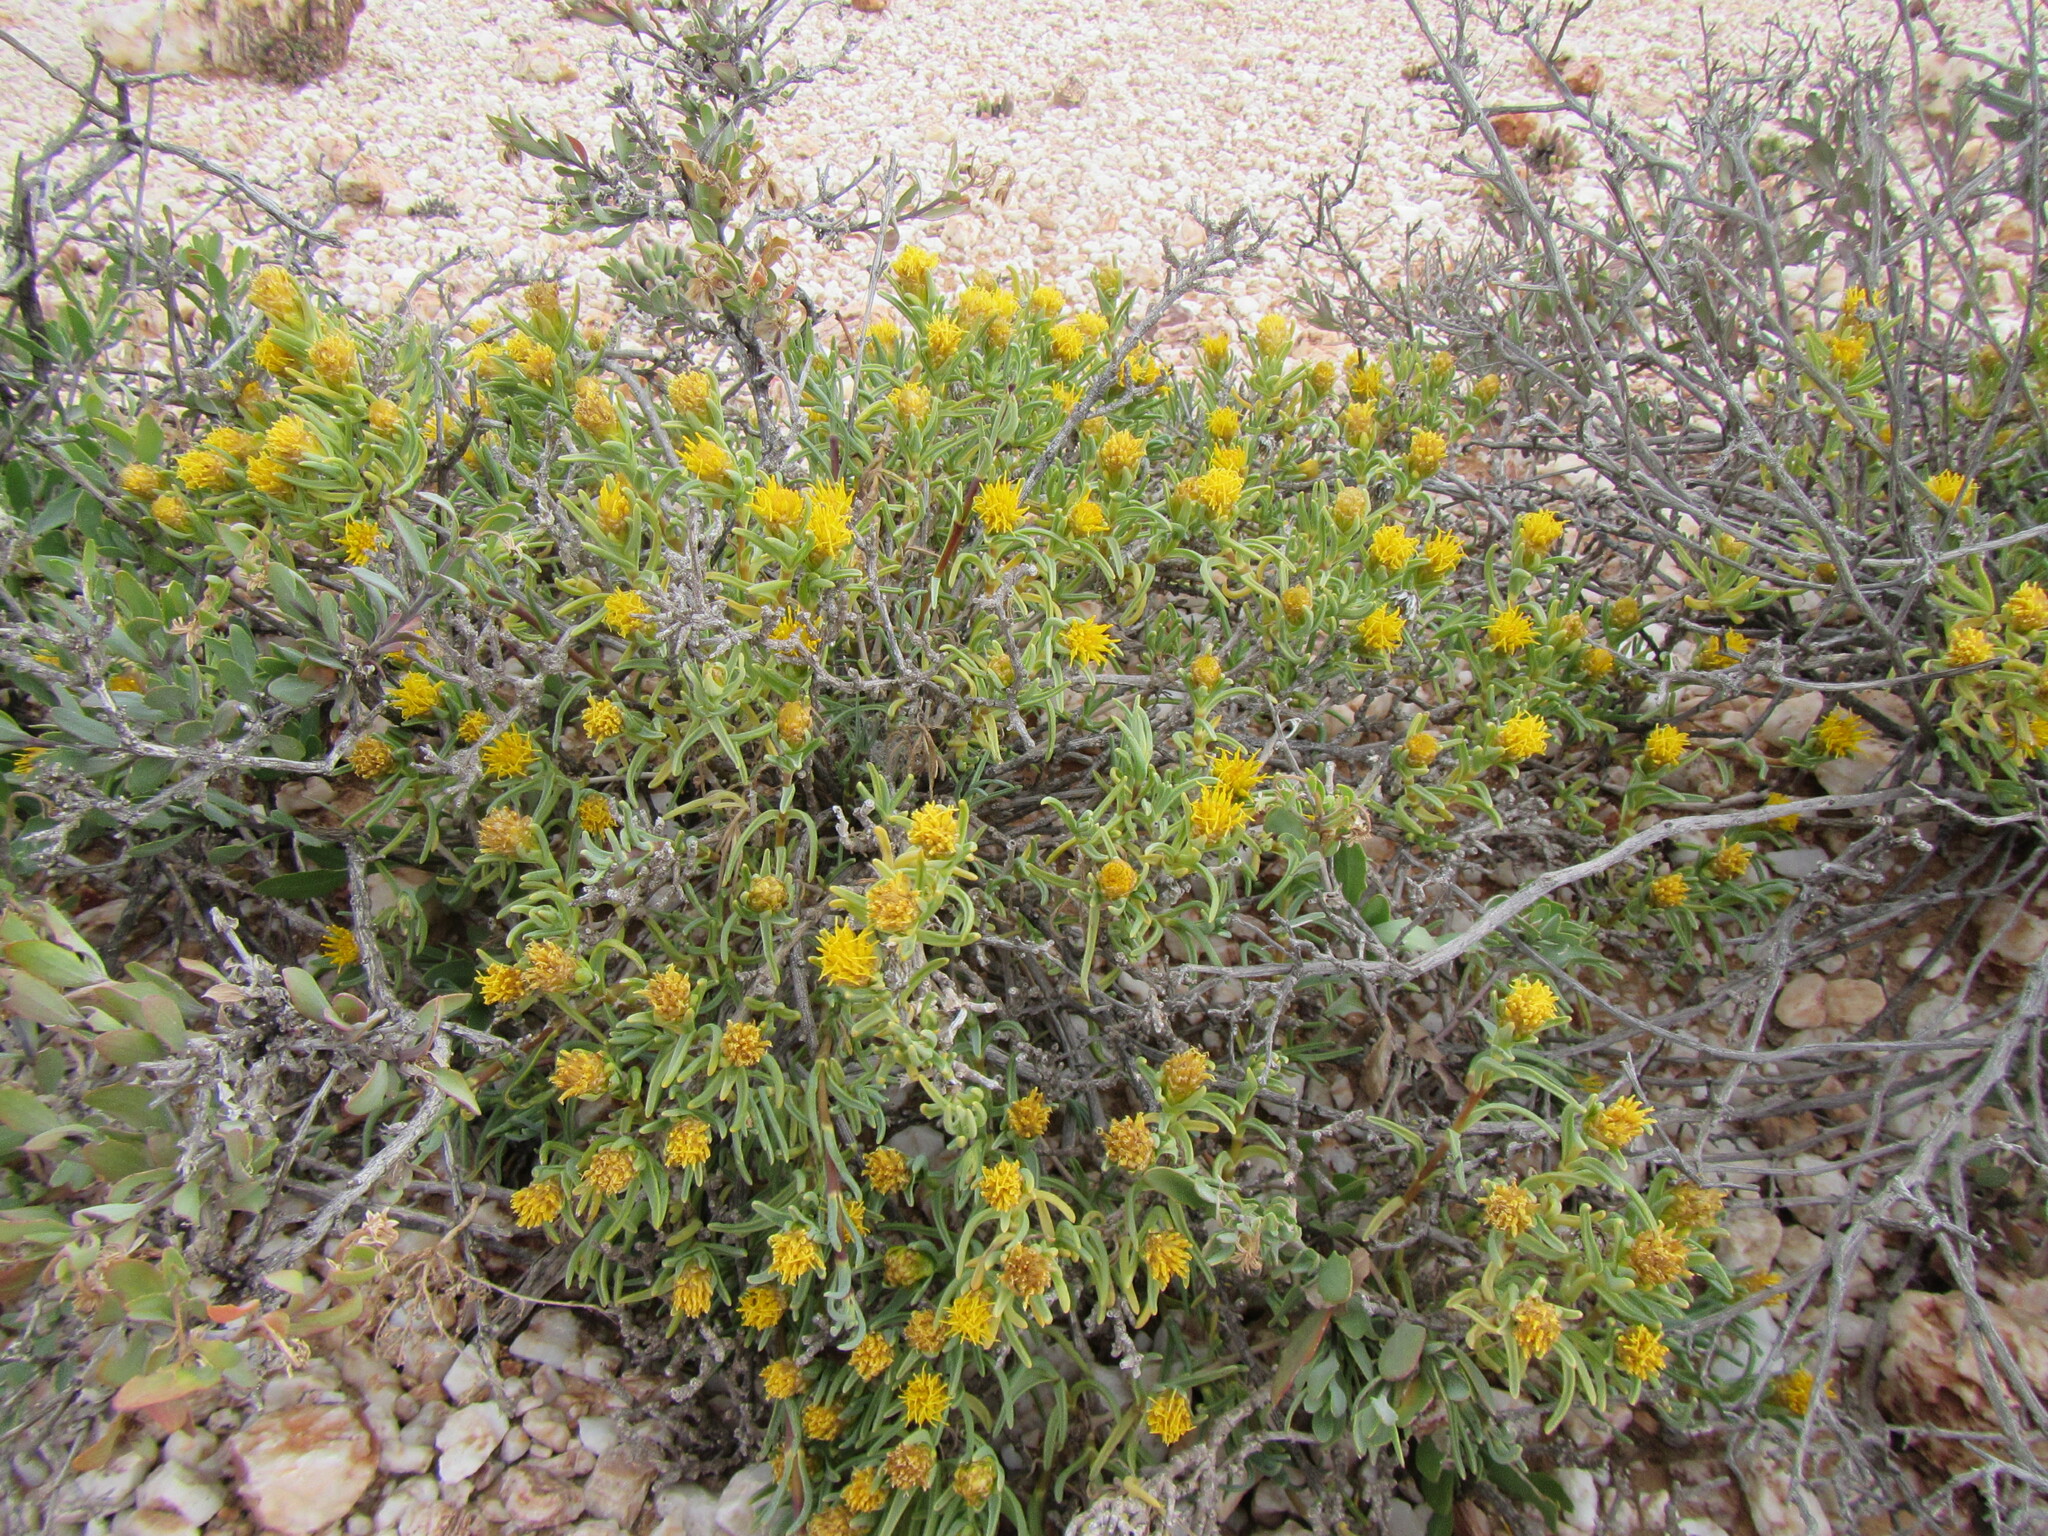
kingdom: Plantae
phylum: Tracheophyta
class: Magnoliopsida
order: Asterales
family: Asteraceae
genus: Pteronia
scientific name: Pteronia heterocarpa
